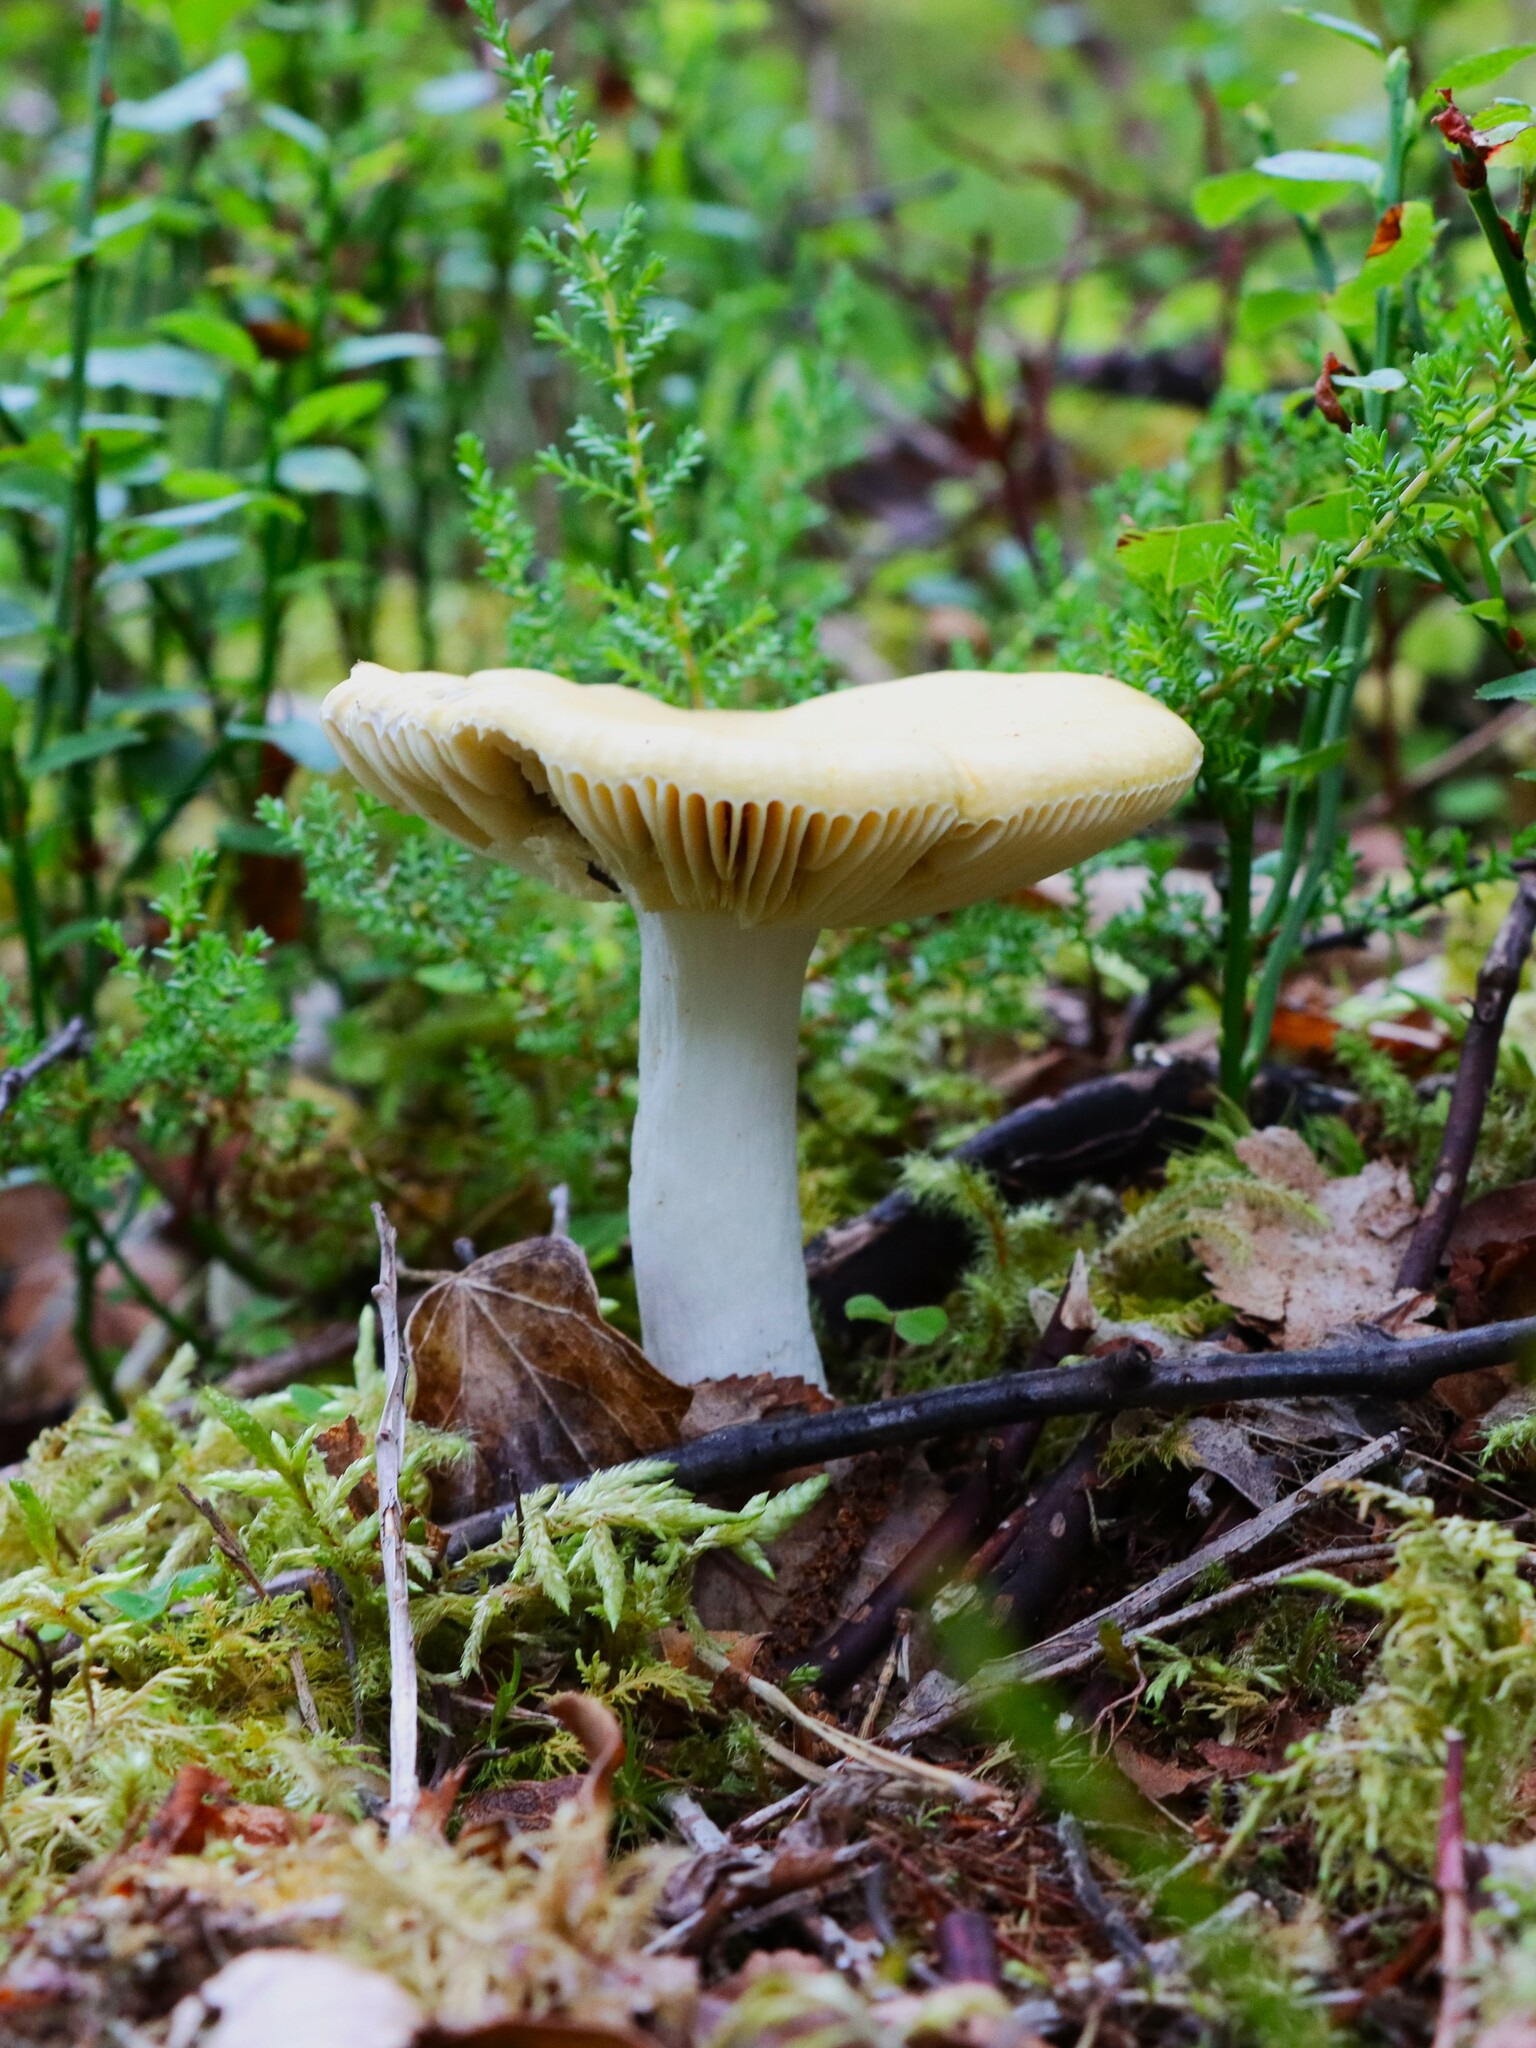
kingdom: Fungi
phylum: Basidiomycota
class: Agaricomycetes
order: Russulales
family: Russulaceae
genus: Russula
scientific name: Russula claroflava
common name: The yellow swamp brittlegill
